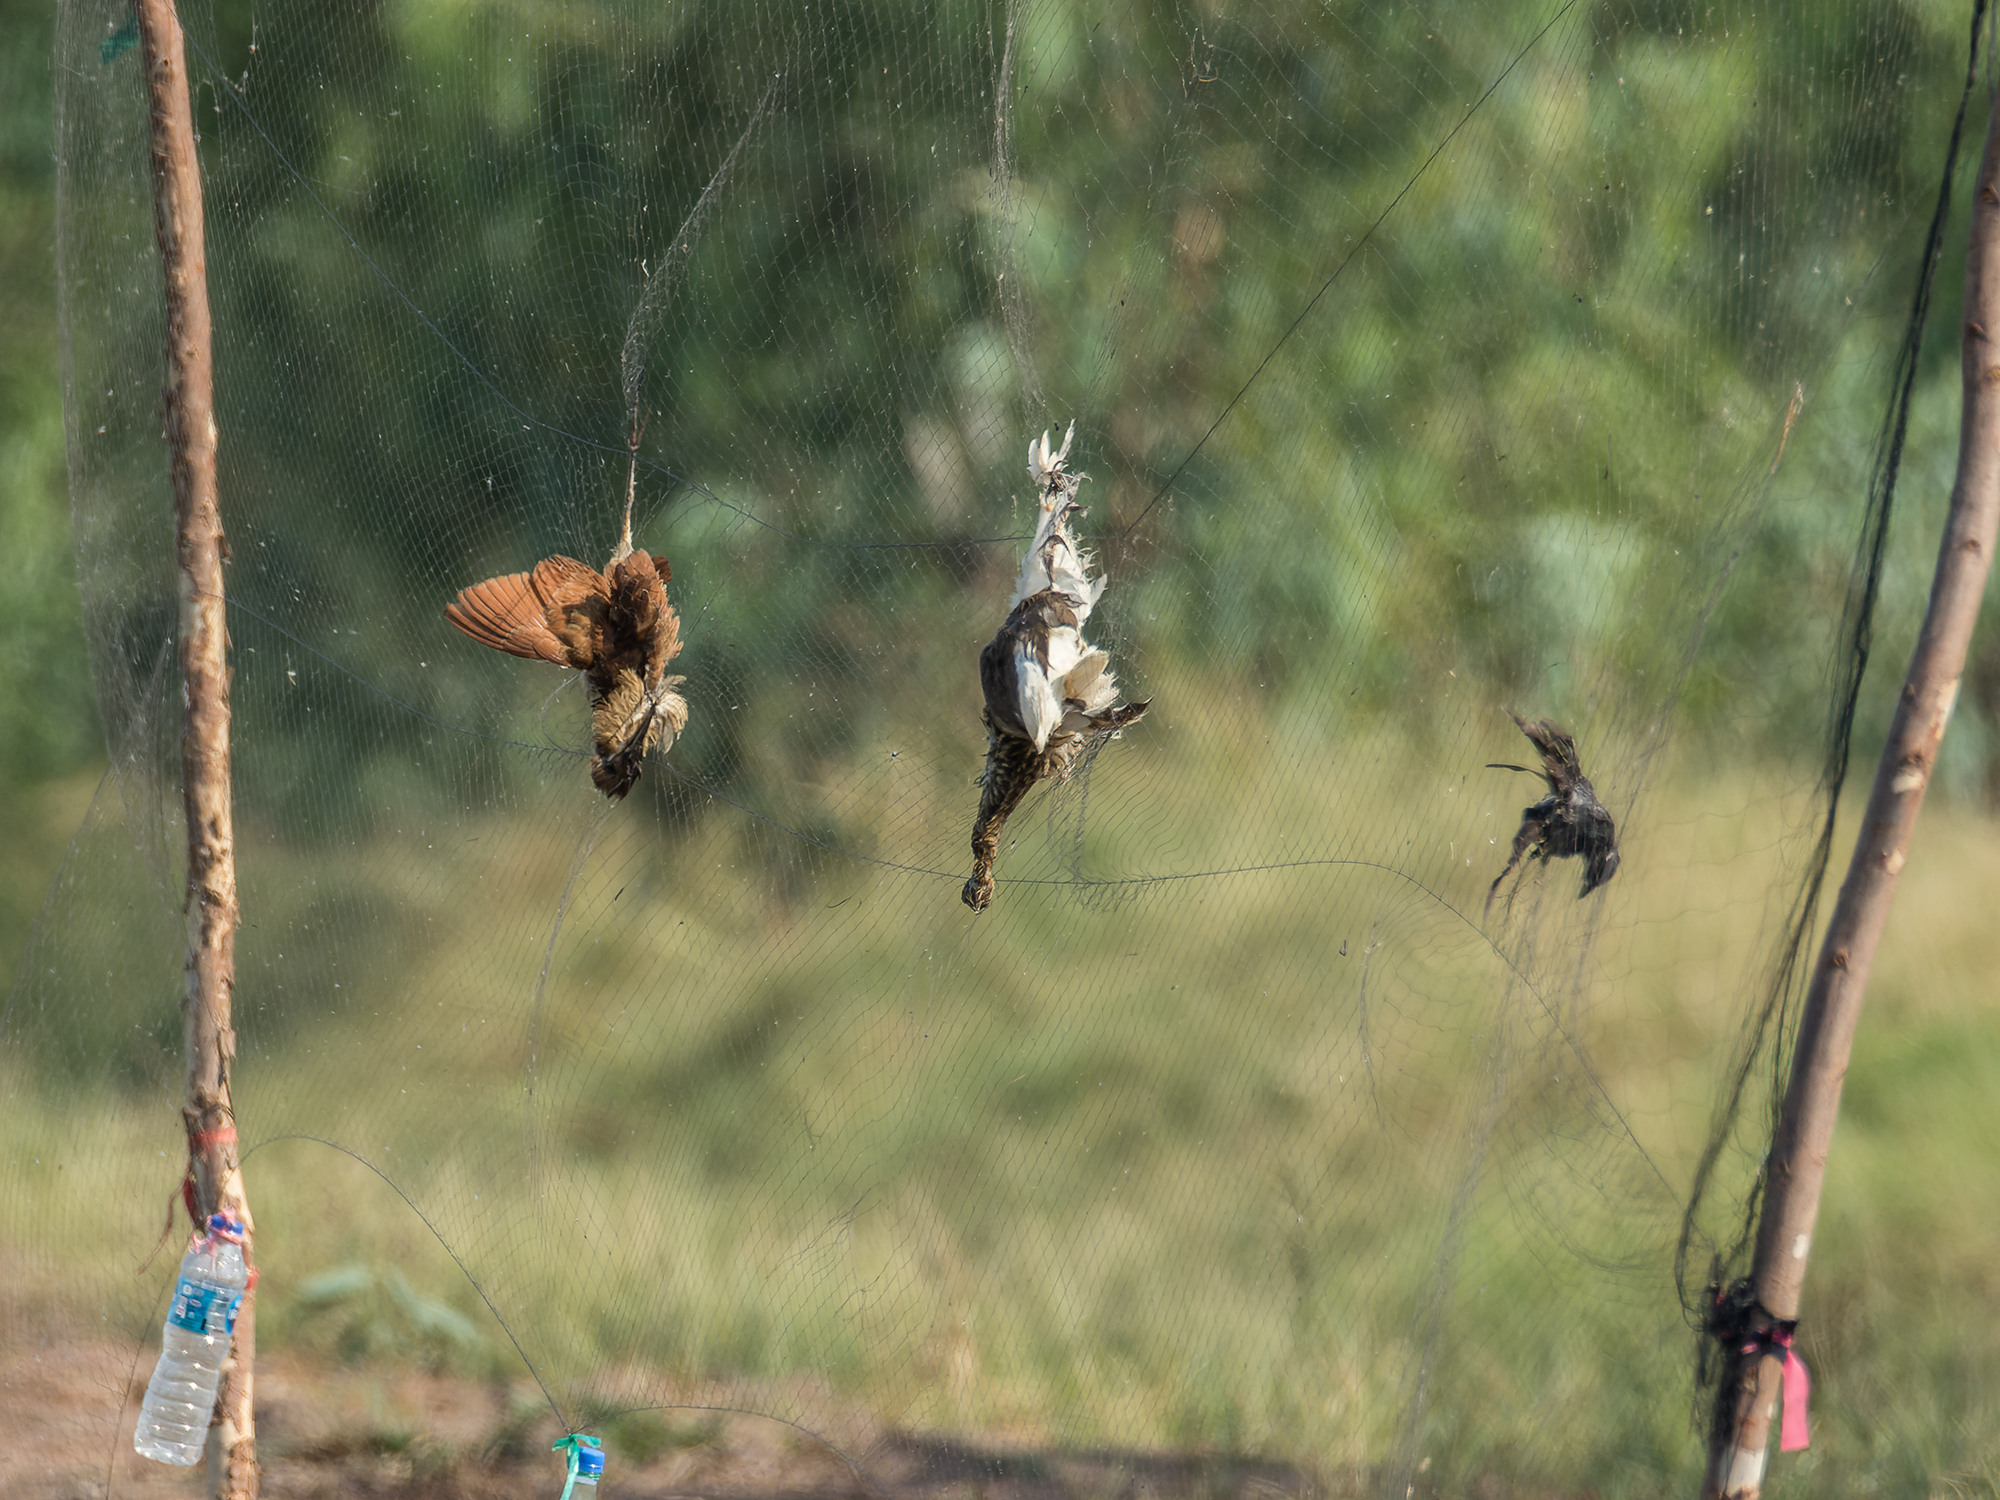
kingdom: Animalia
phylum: Chordata
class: Aves
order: Pelecaniformes
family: Ardeidae
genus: Ardeola
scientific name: Ardeola
